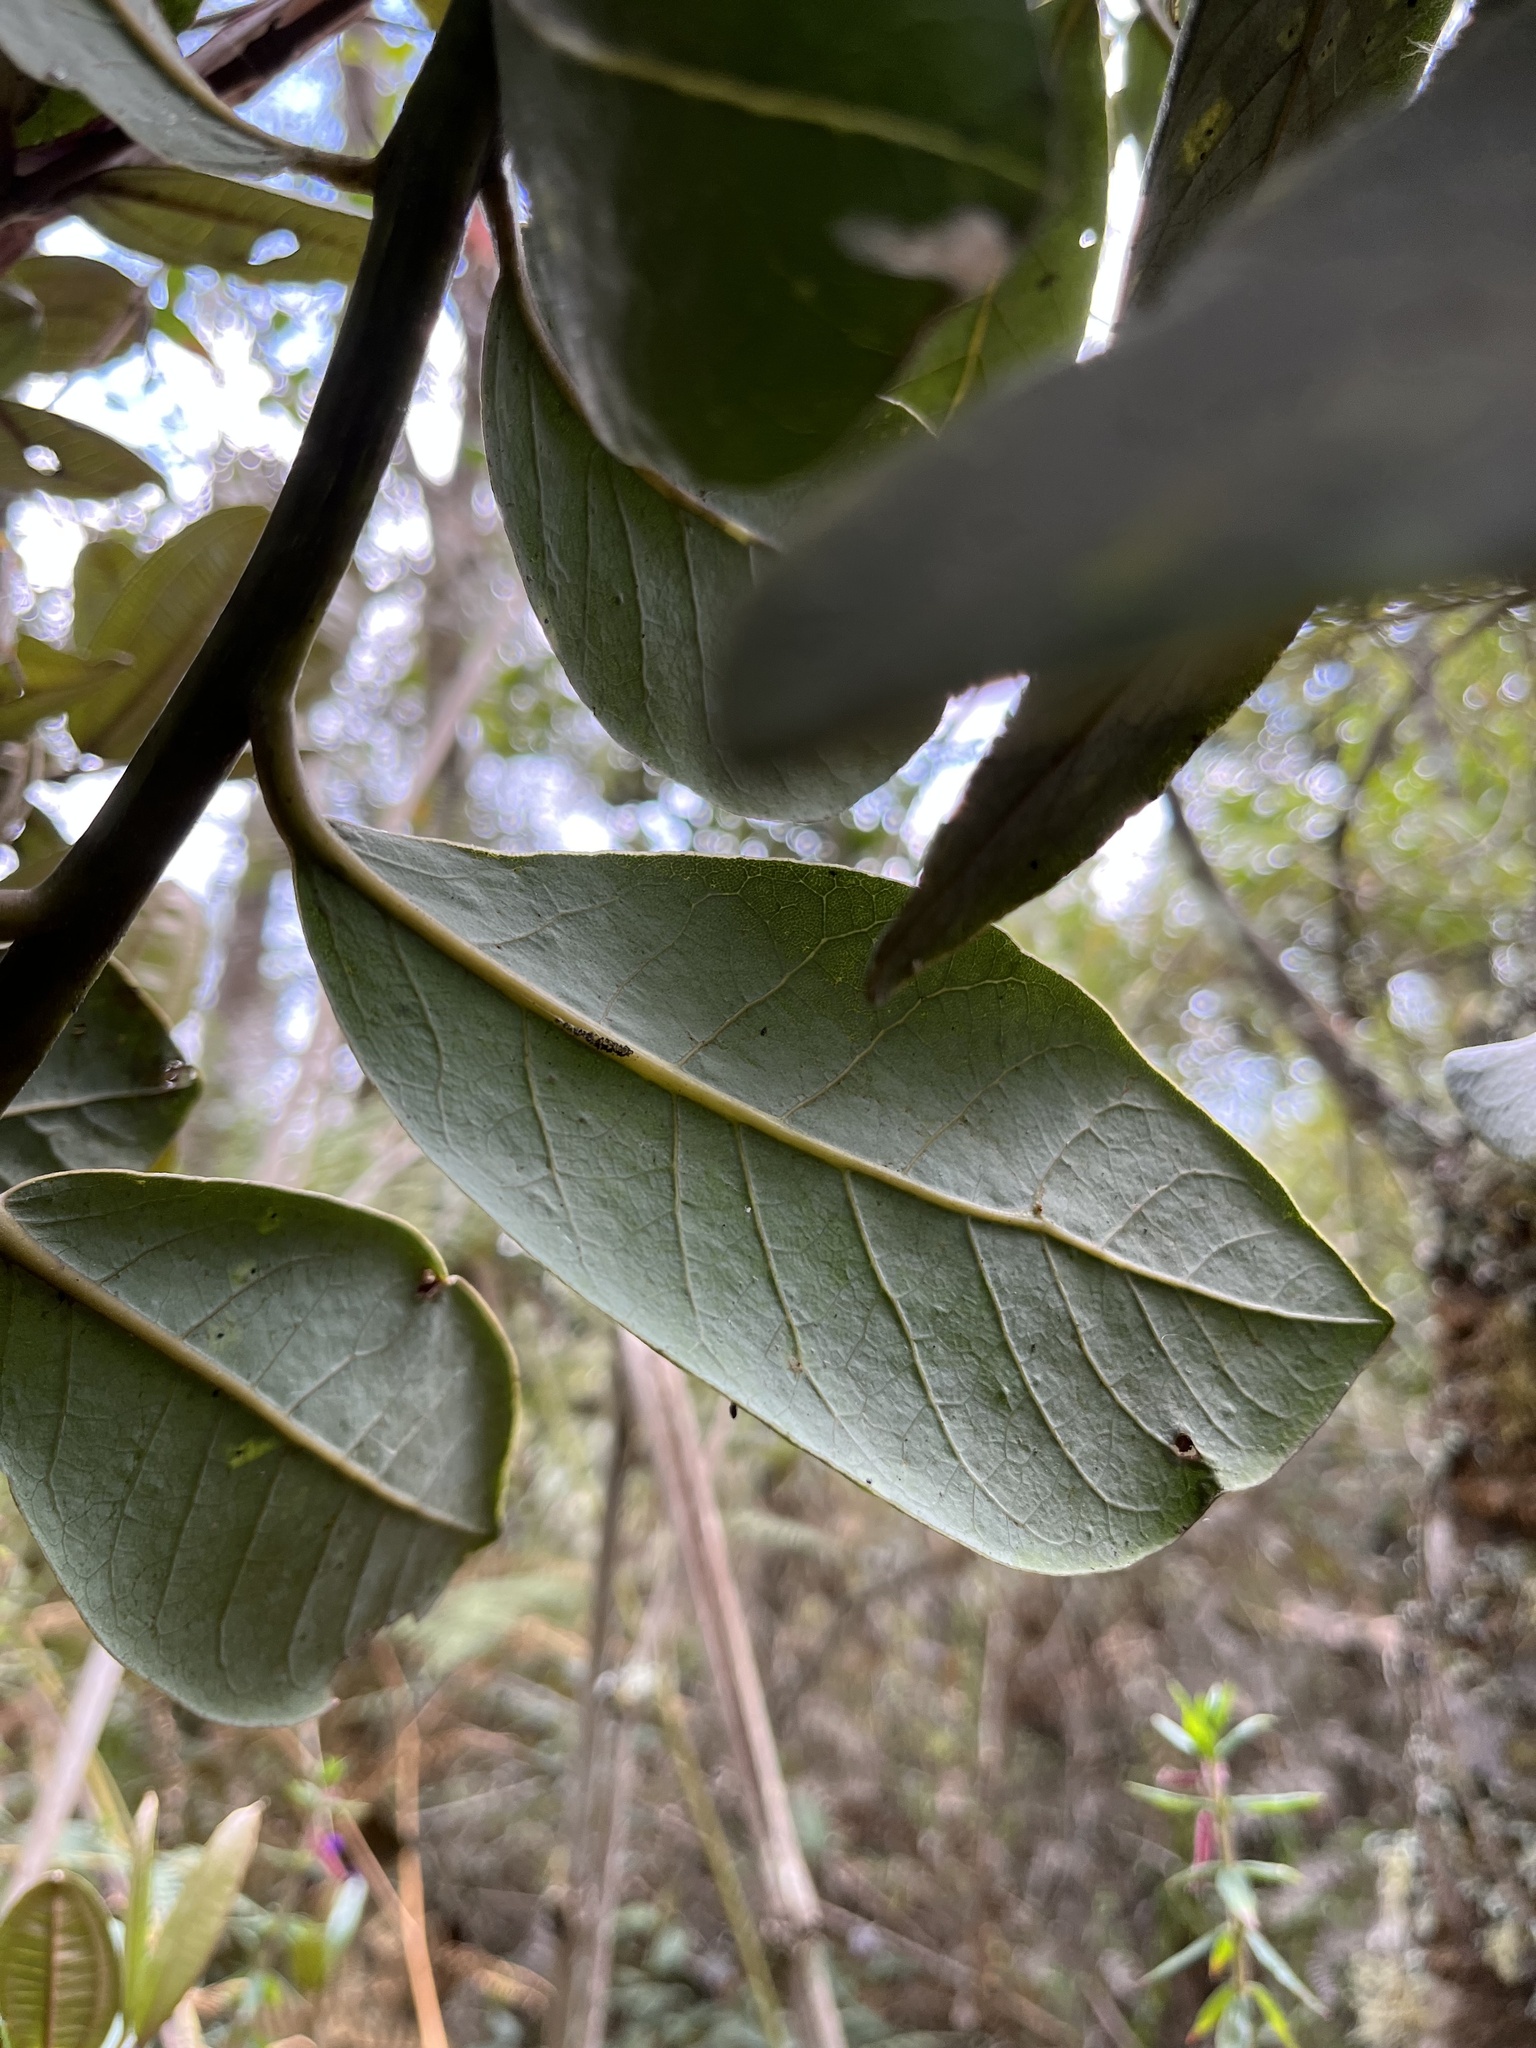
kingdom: Plantae
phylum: Tracheophyta
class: Magnoliopsida
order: Laurales
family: Lauraceae
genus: Persea
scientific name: Persea mutisii
